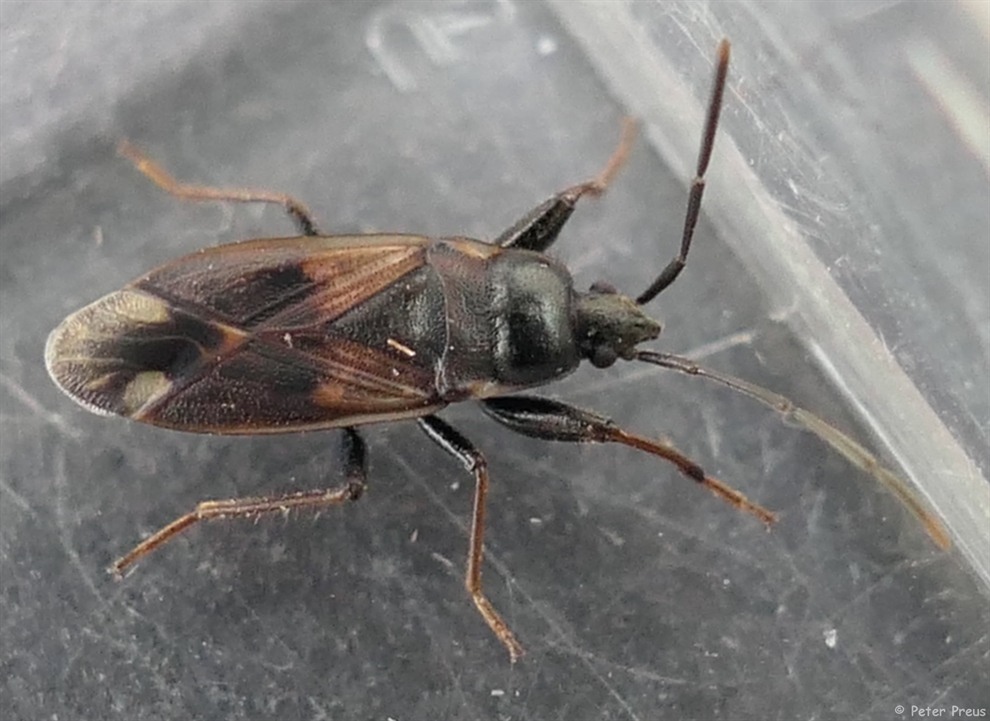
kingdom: Animalia
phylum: Arthropoda
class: Insecta
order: Hemiptera
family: Rhyparochromidae
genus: Eremocoris
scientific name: Eremocoris fenestratus
